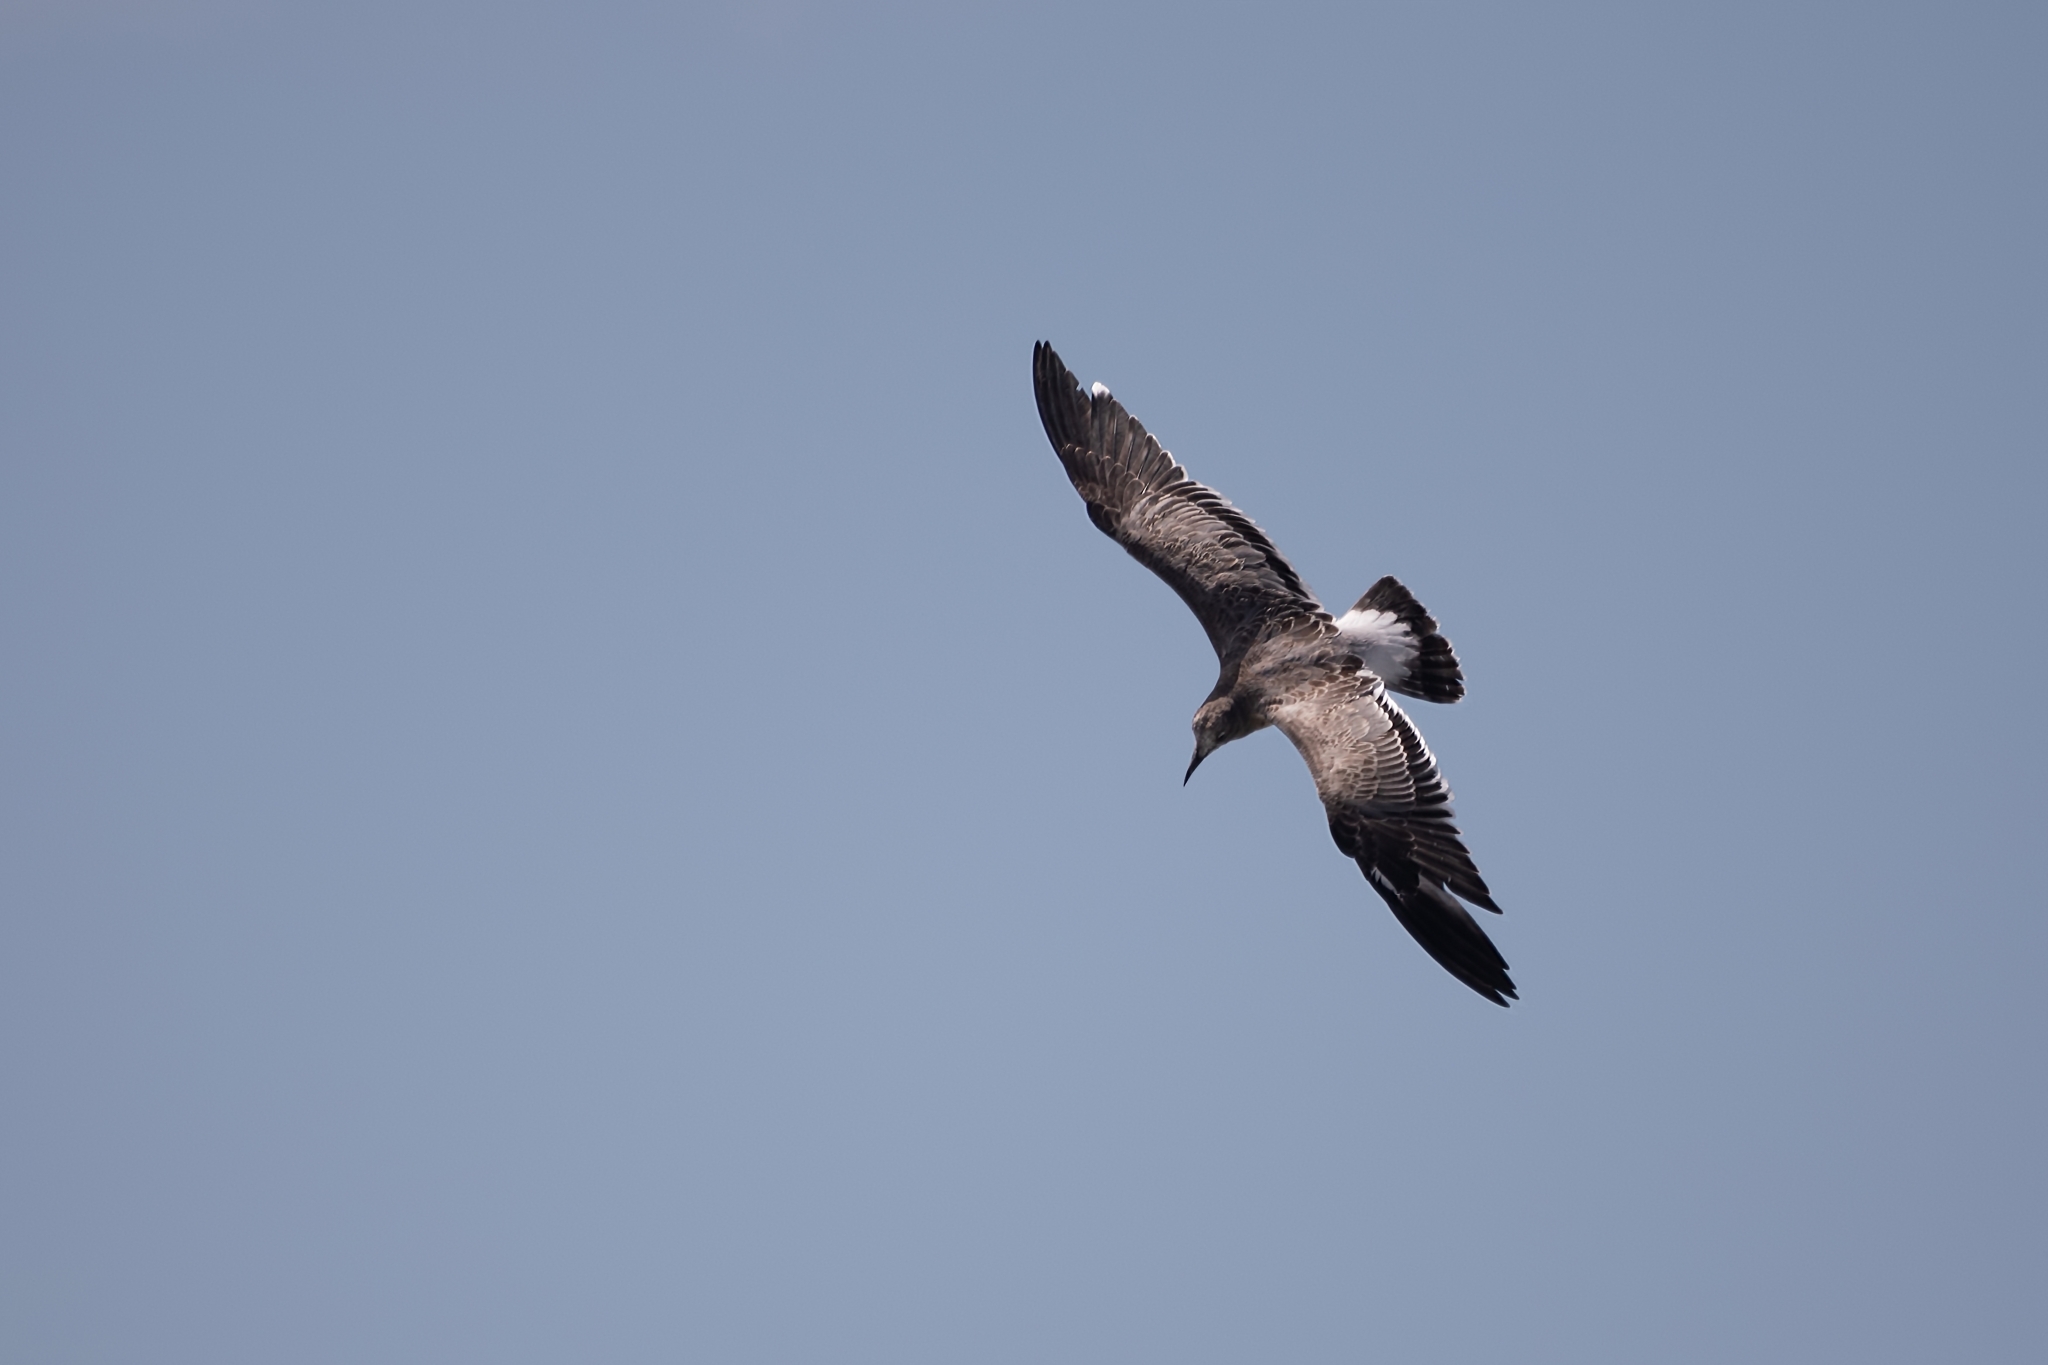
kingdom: Animalia
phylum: Chordata
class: Aves
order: Charadriiformes
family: Laridae
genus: Leucophaeus
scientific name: Leucophaeus atricilla
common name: Laughing gull
